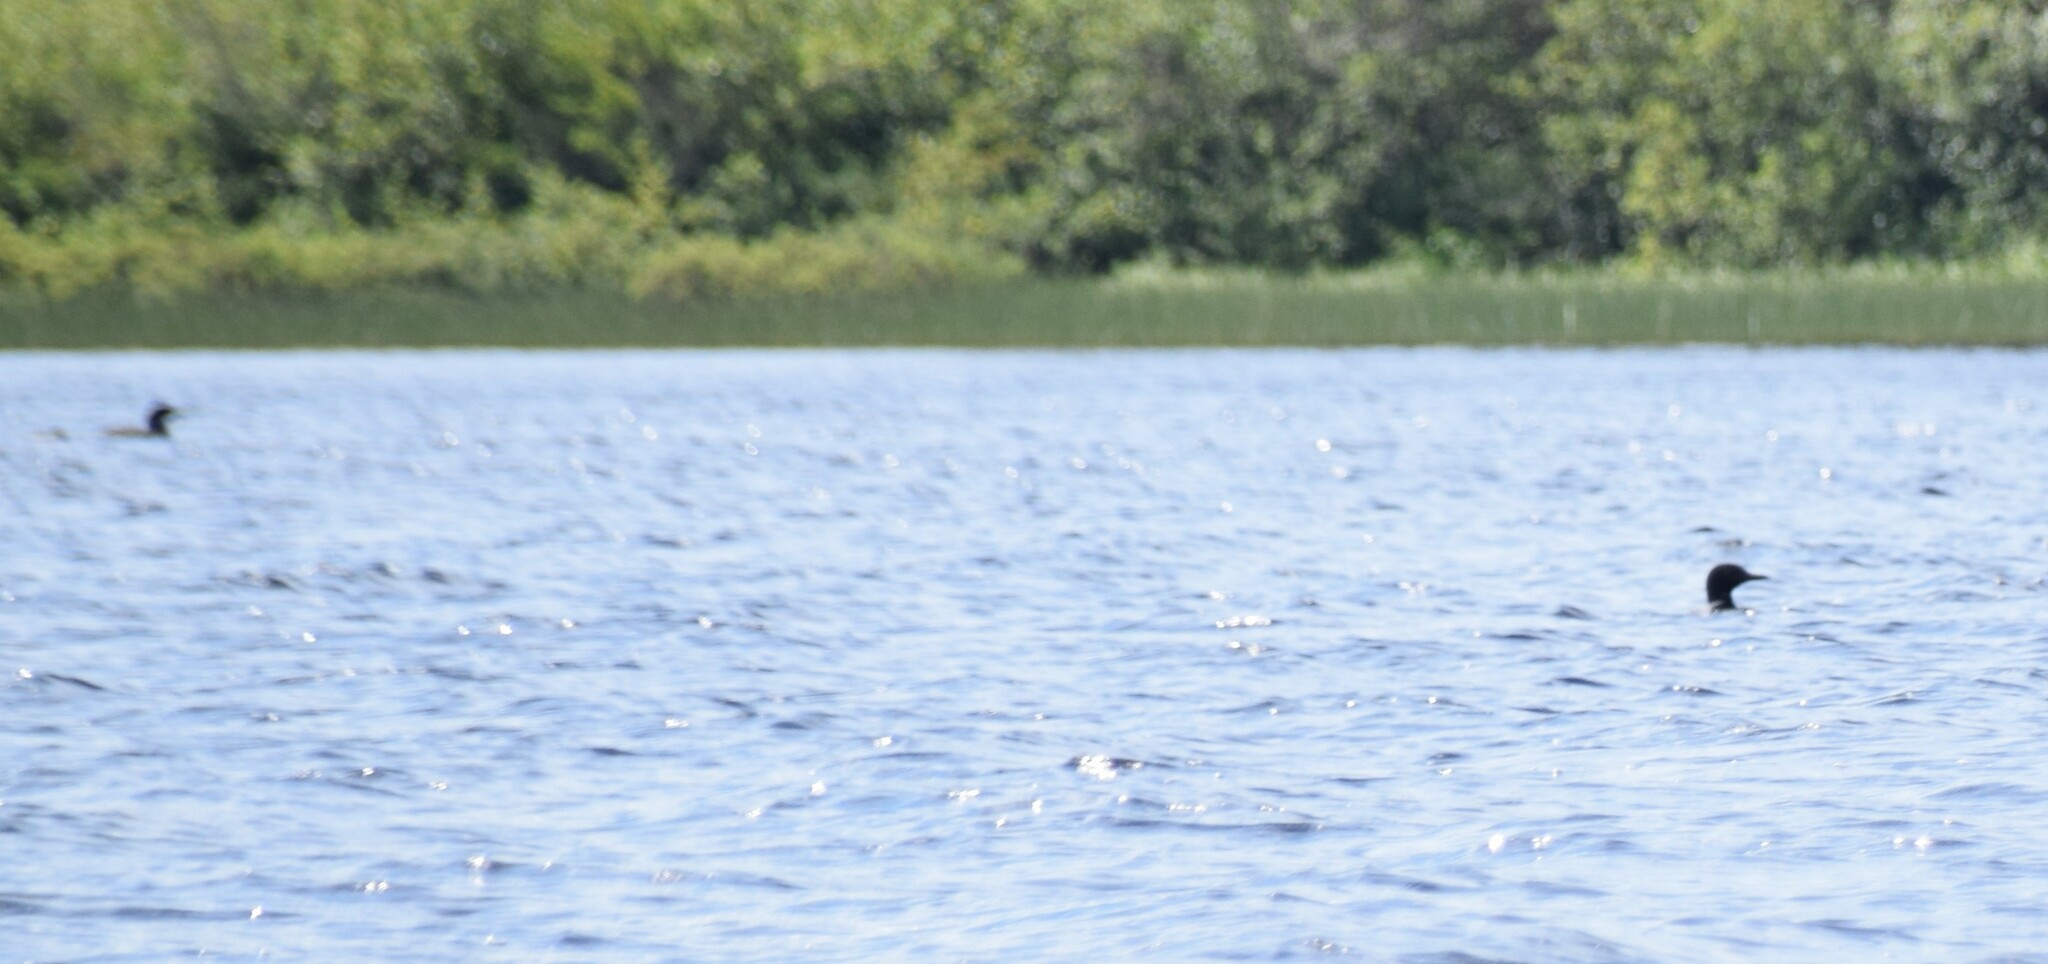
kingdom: Animalia
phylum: Chordata
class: Aves
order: Gaviiformes
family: Gaviidae
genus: Gavia
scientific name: Gavia immer
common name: Common loon
